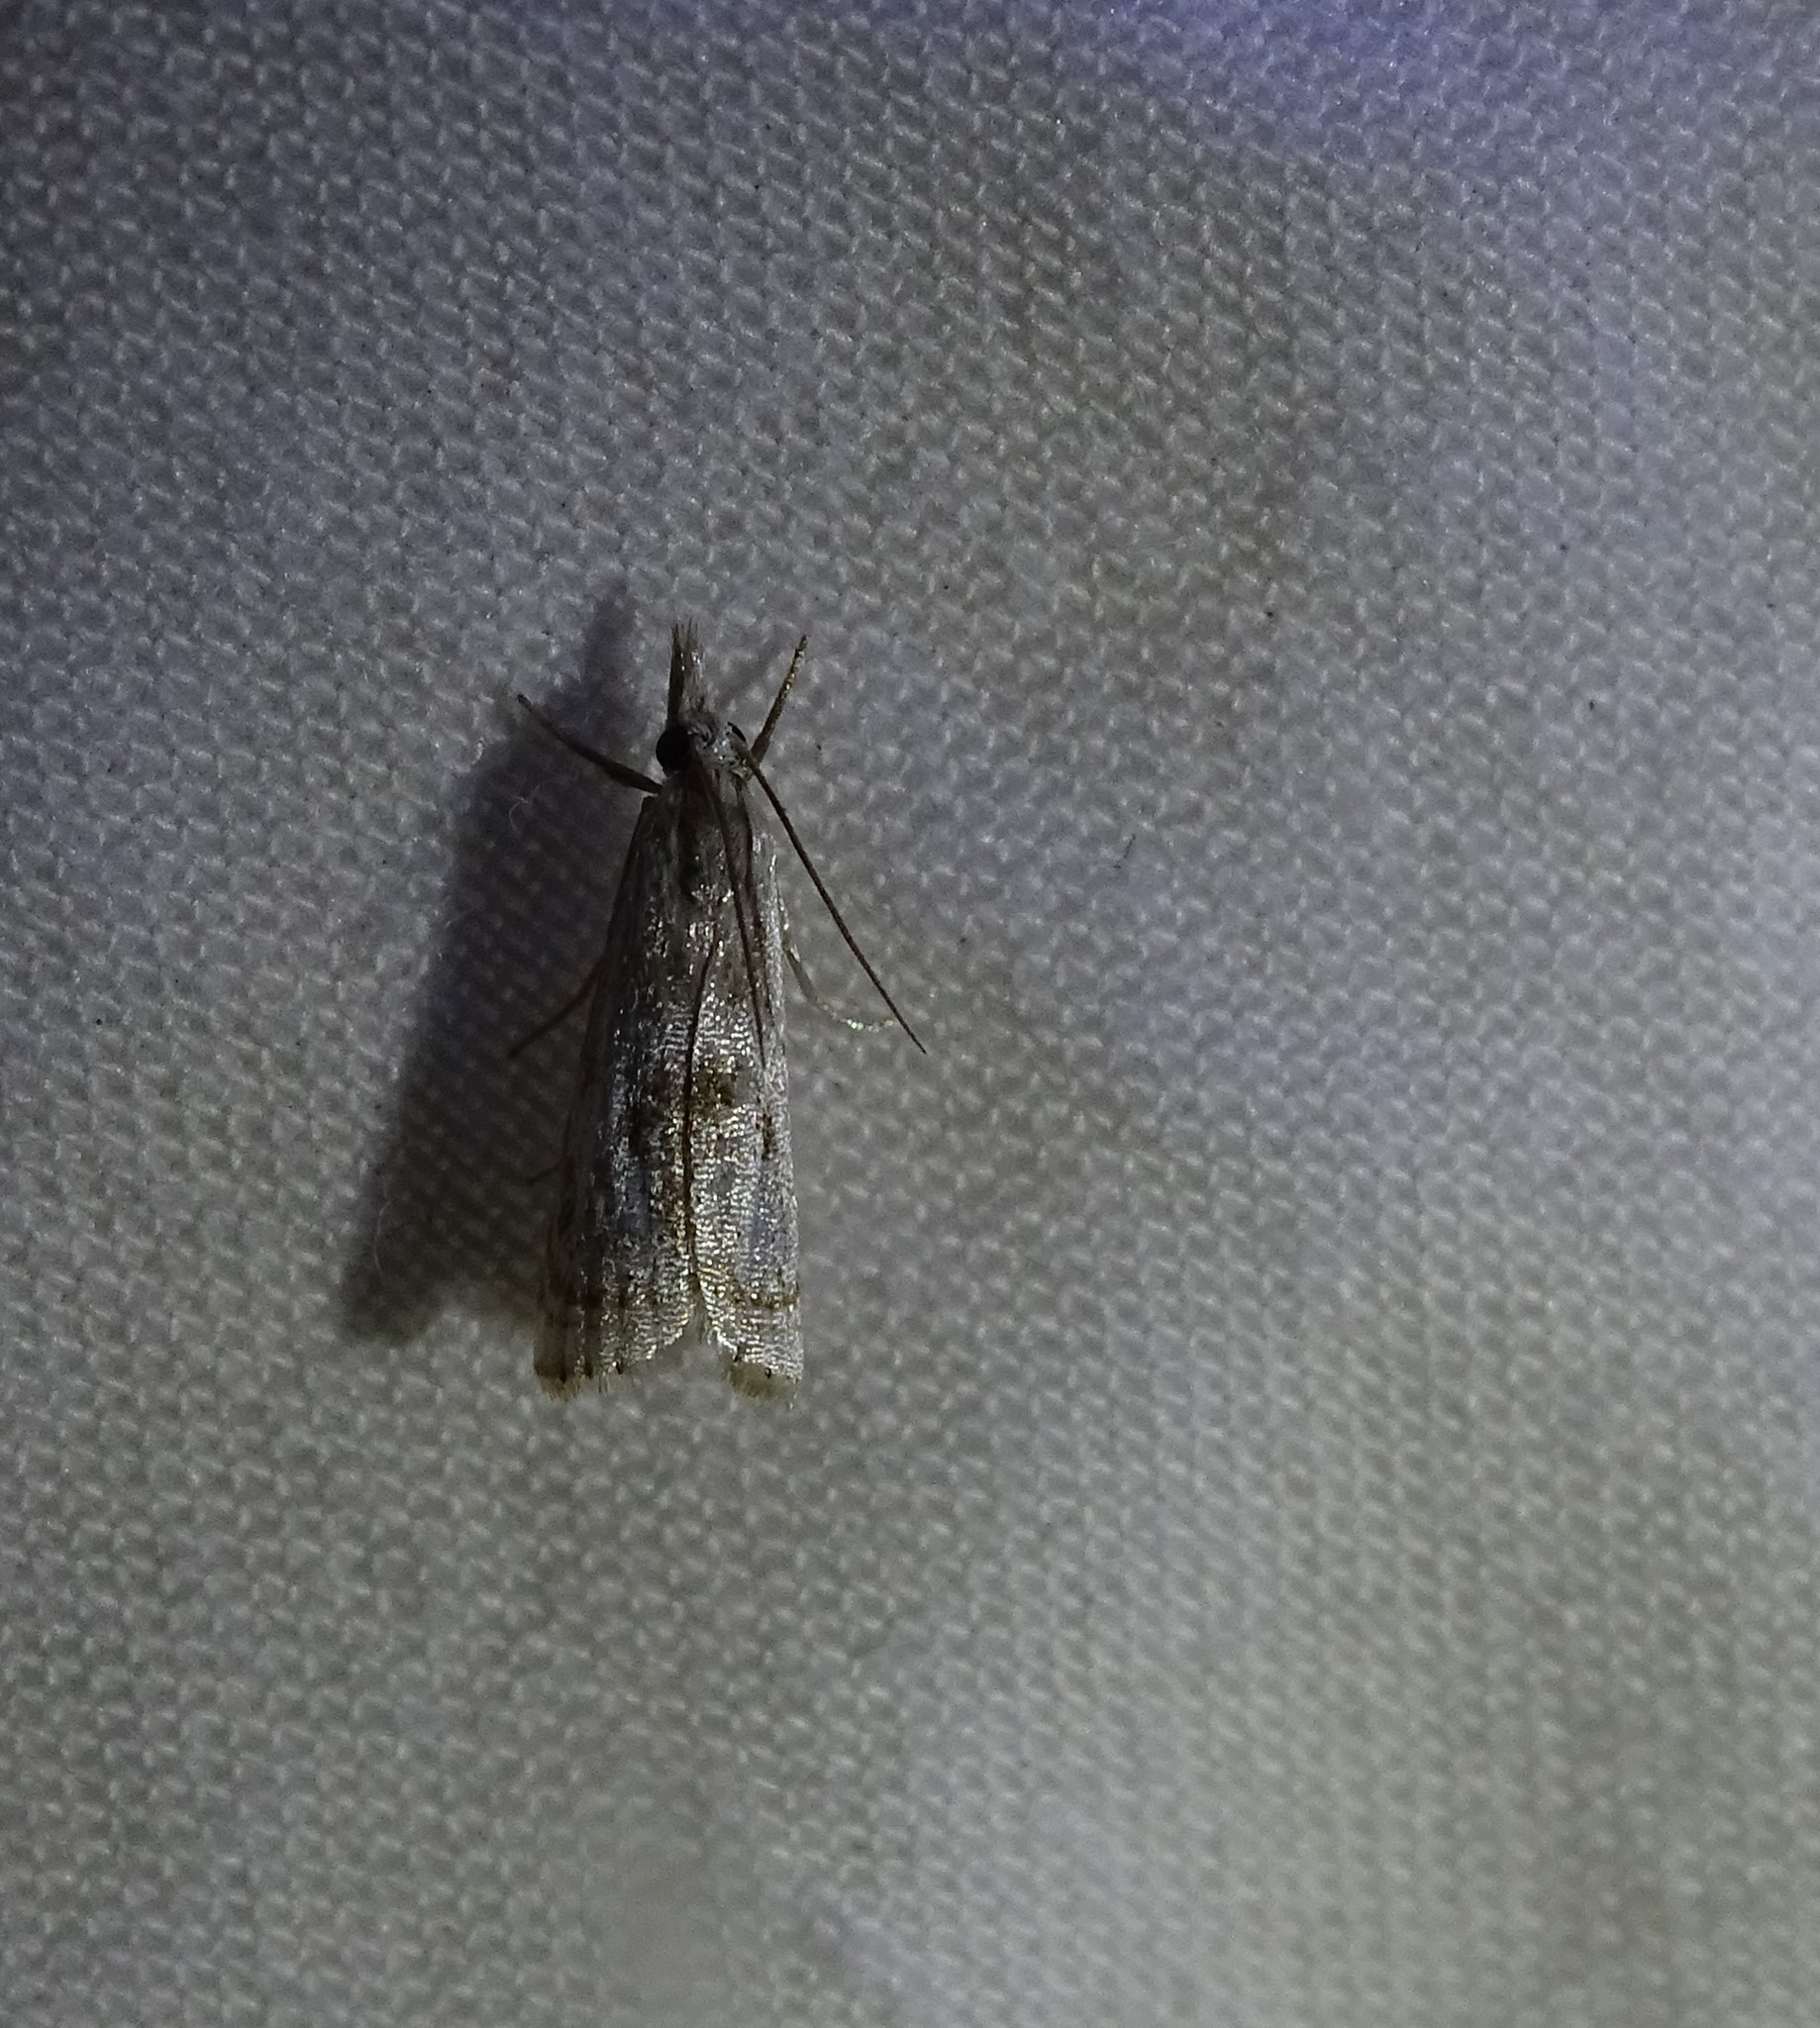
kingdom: Animalia
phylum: Arthropoda
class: Insecta
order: Lepidoptera
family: Crambidae
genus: Microcrambus
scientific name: Microcrambus elegans
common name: Elegant grass-veneer
